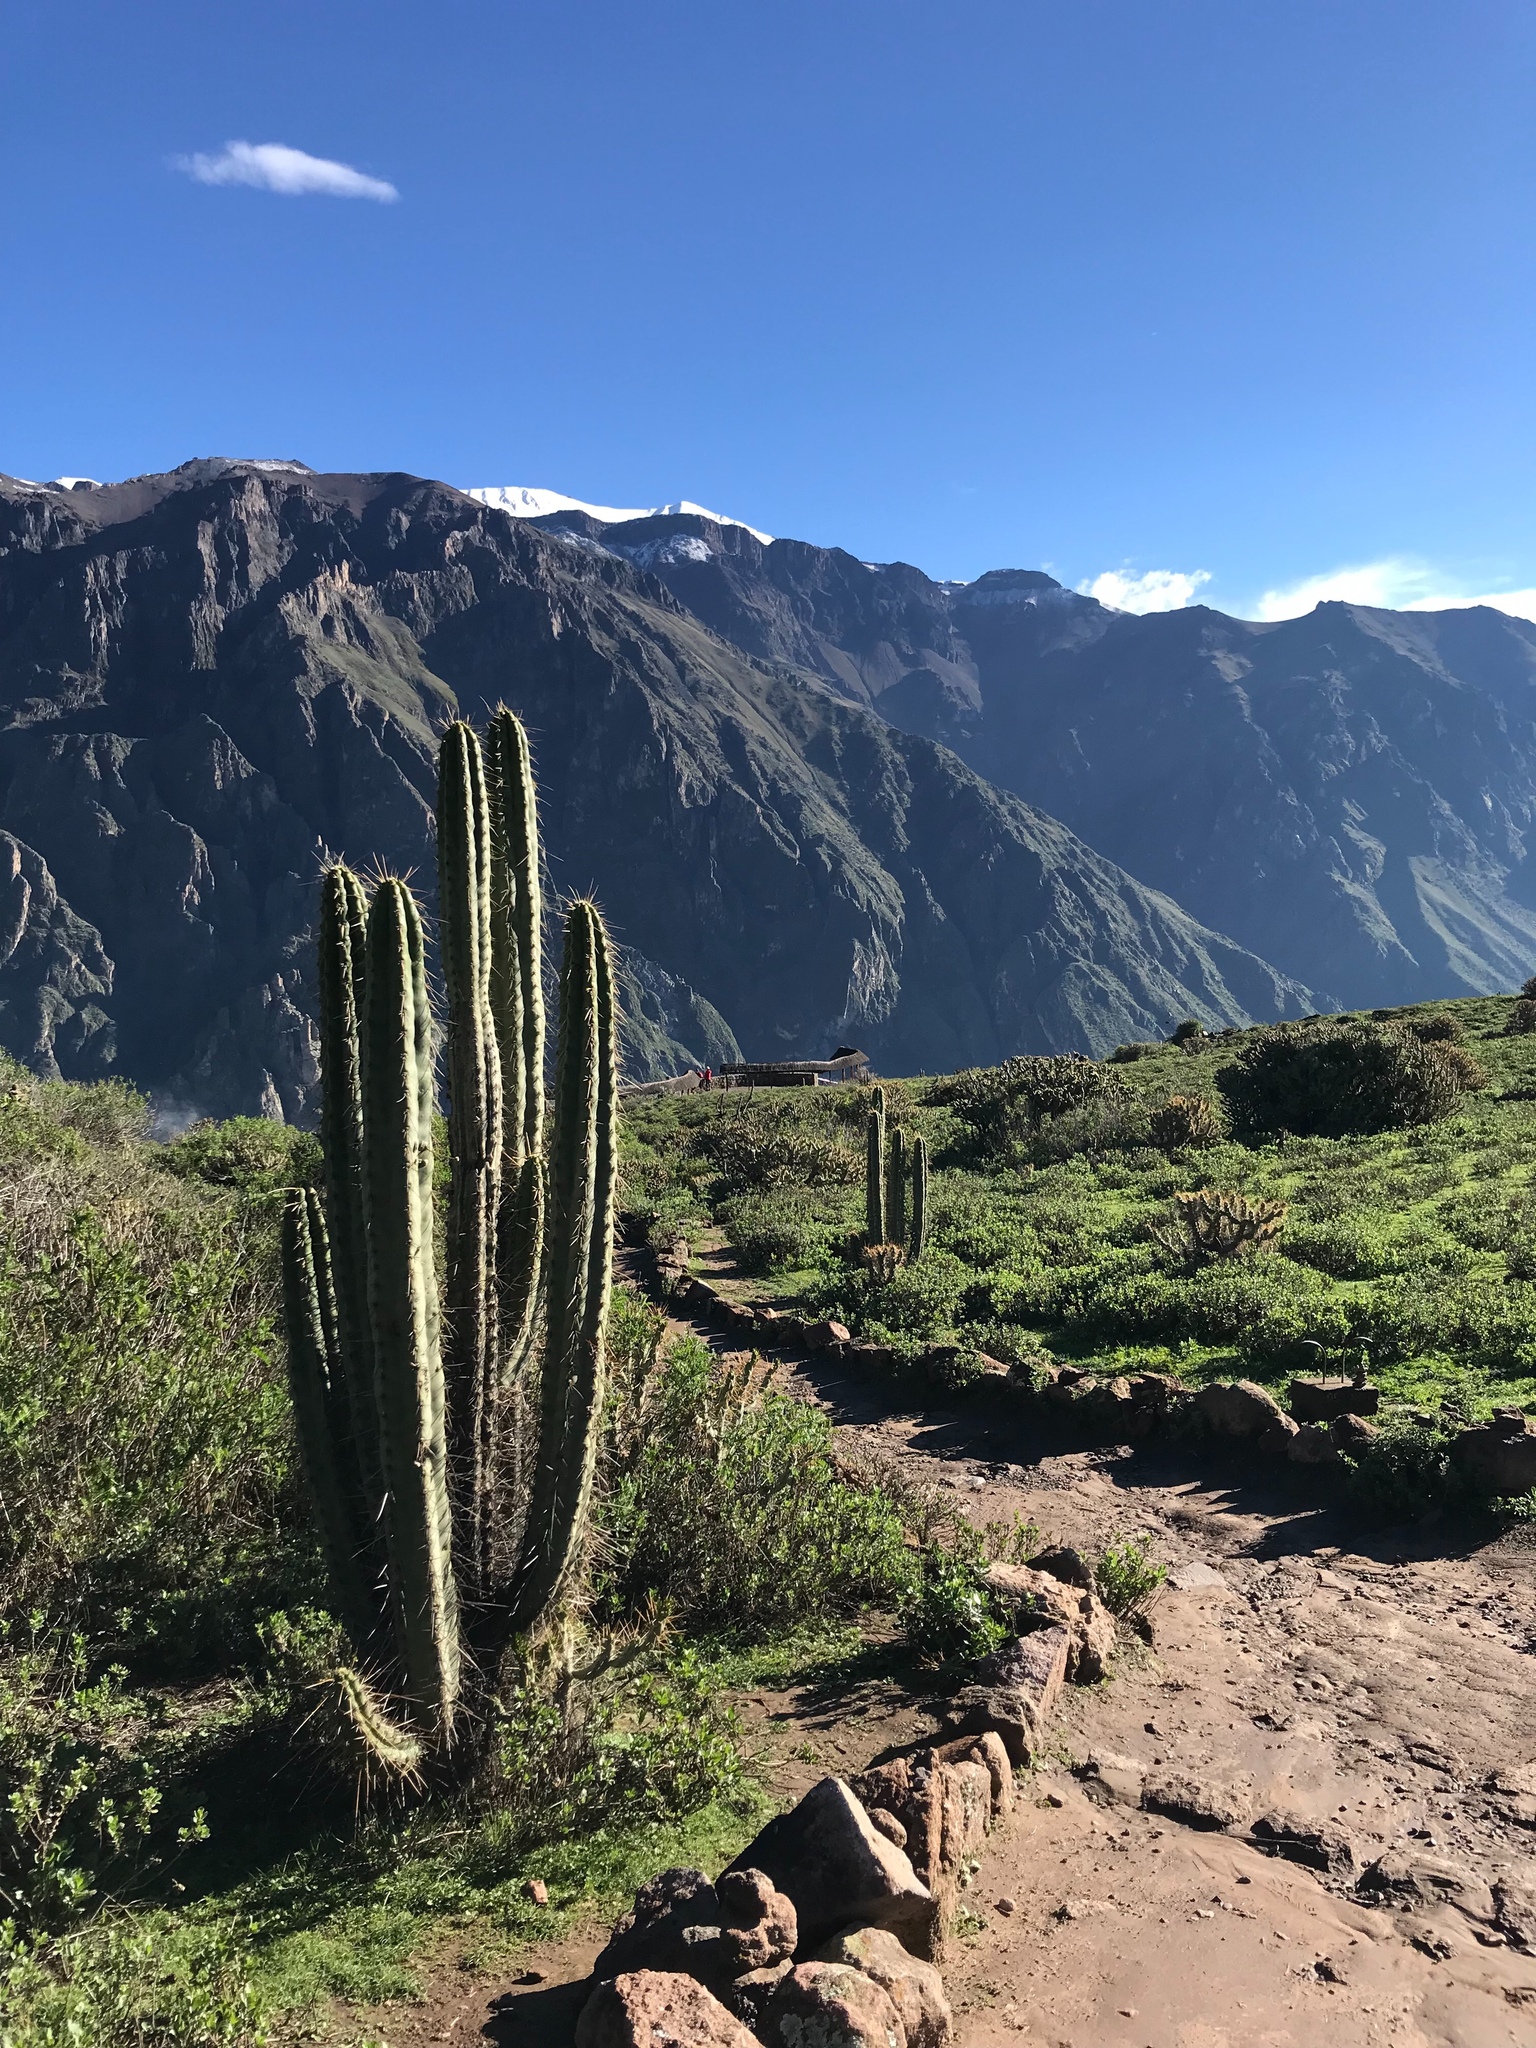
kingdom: Plantae
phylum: Tracheophyta
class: Magnoliopsida
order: Caryophyllales
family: Cactaceae
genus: Corryocactus
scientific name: Corryocactus brevistylus
